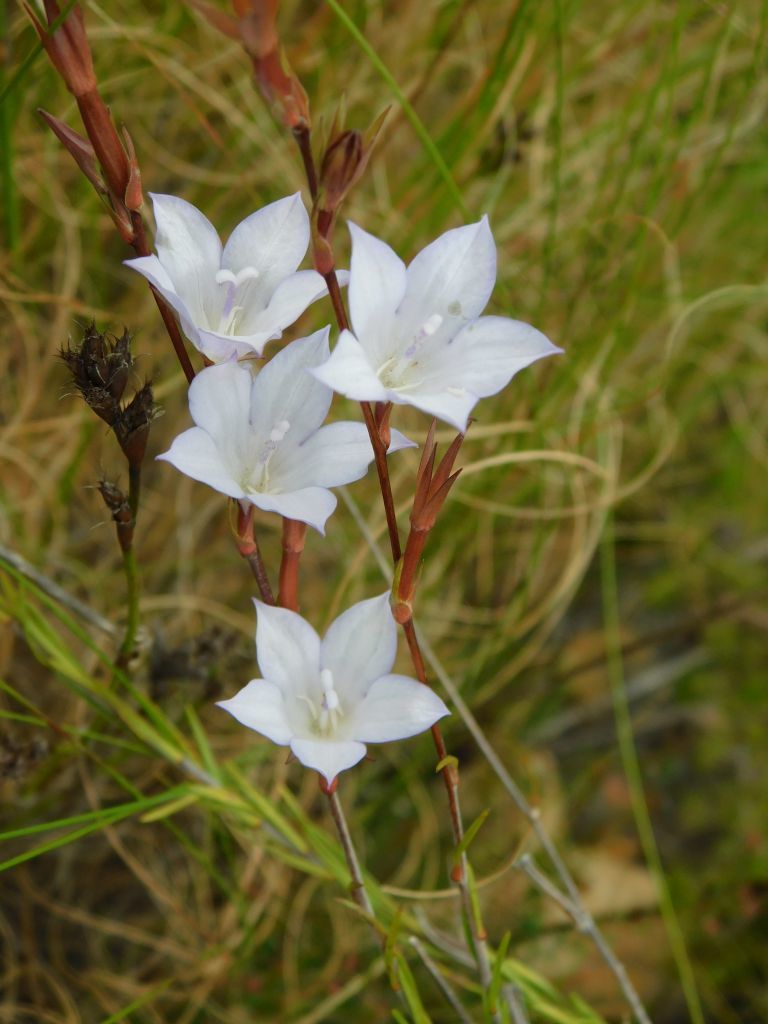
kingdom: Plantae
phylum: Tracheophyta
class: Magnoliopsida
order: Asterales
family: Campanulaceae
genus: Prismatocarpus
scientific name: Prismatocarpus schlechteri
